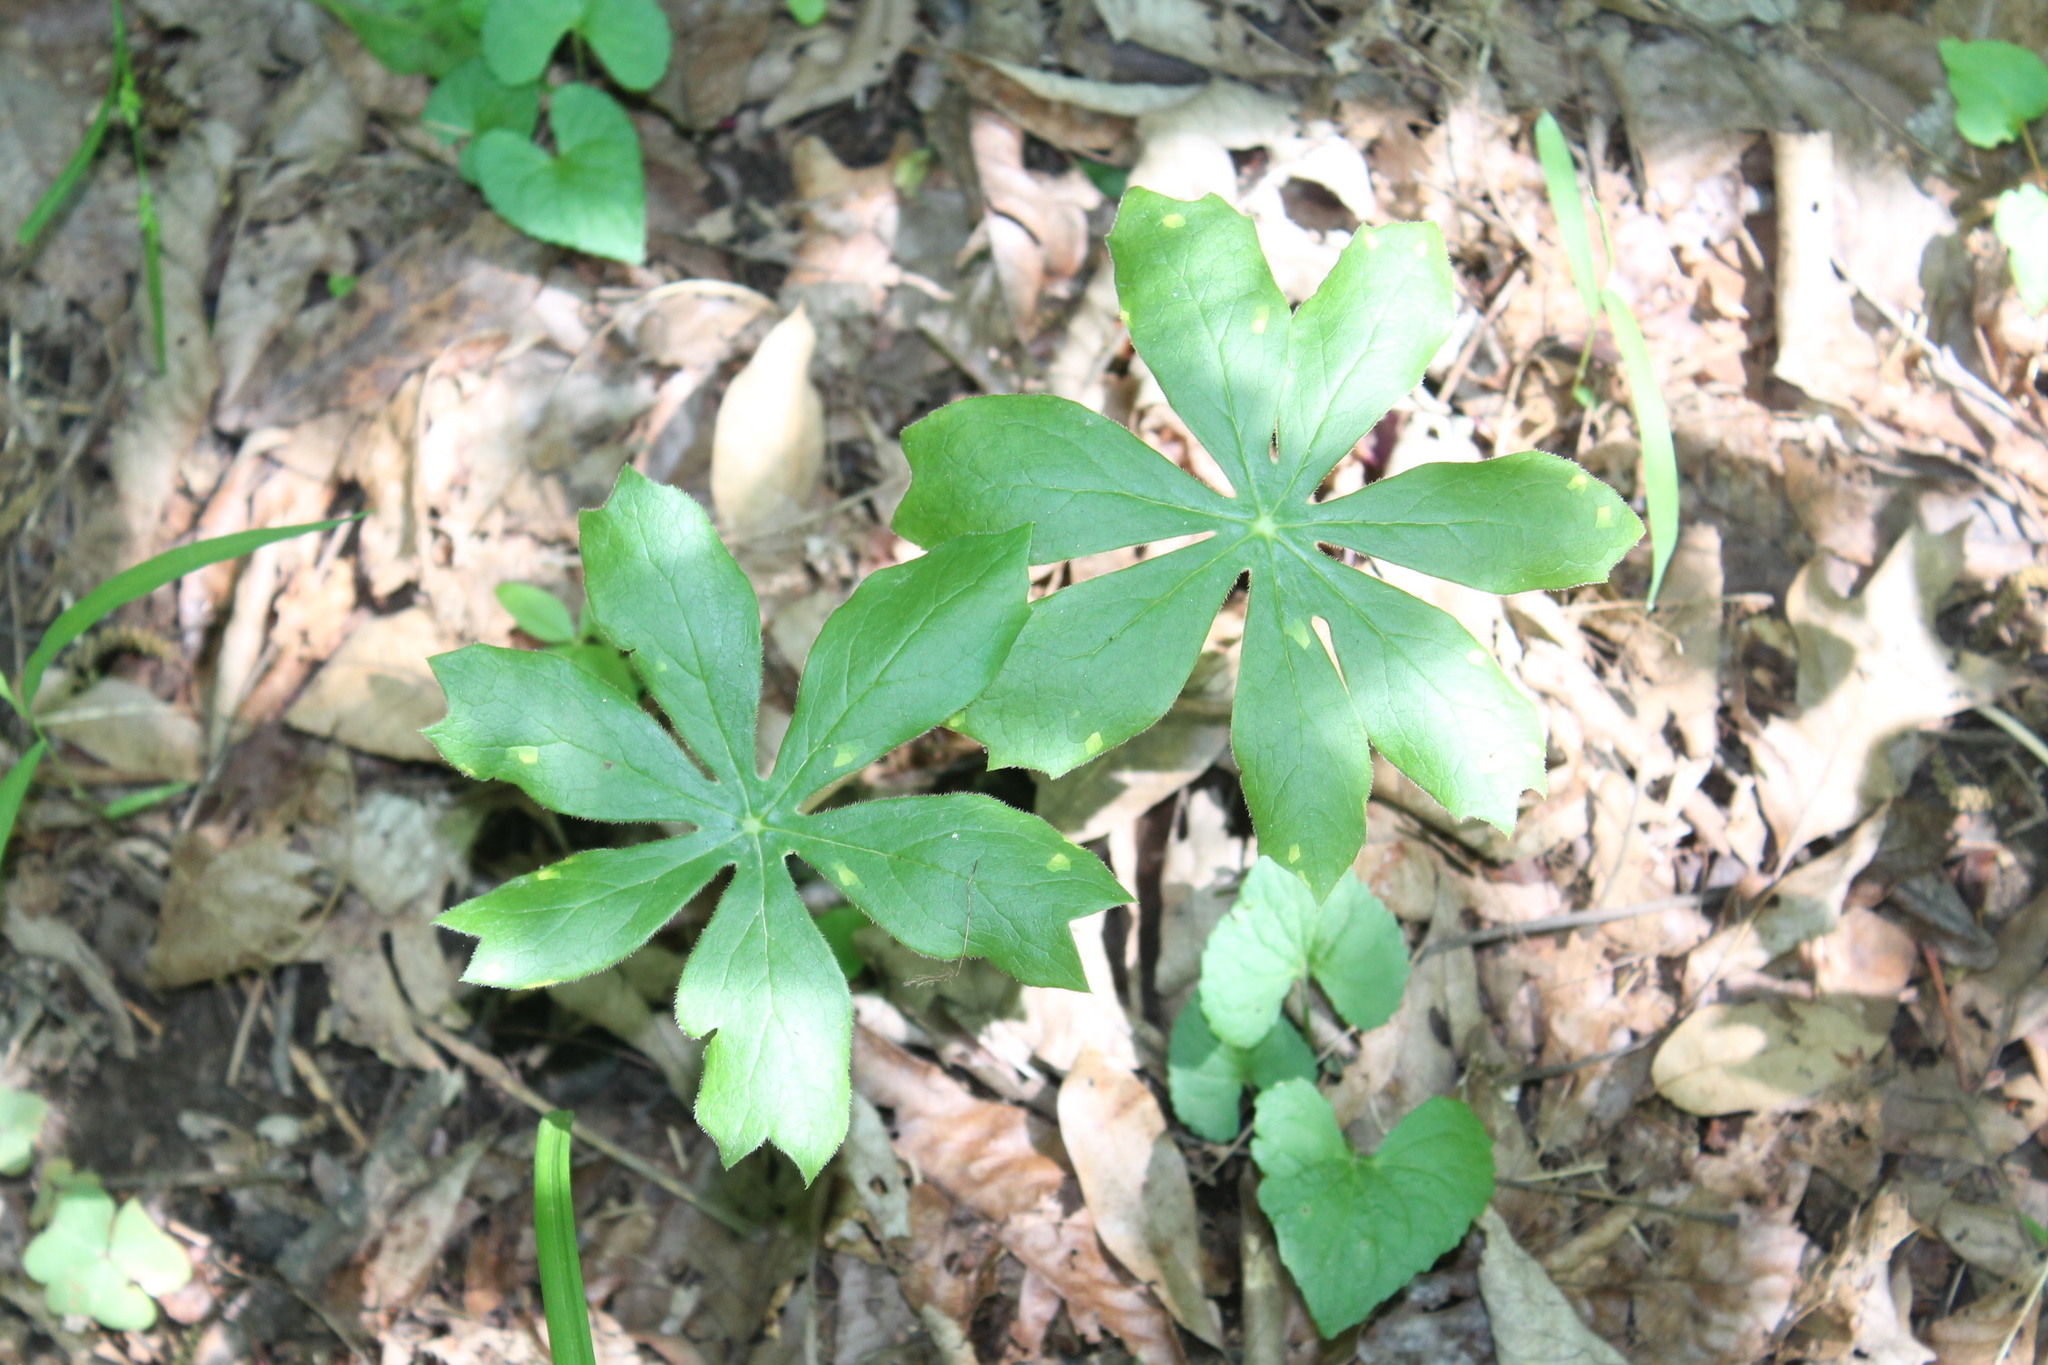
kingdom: Plantae
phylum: Tracheophyta
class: Magnoliopsida
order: Ranunculales
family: Berberidaceae
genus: Podophyllum
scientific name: Podophyllum peltatum
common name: Wild mandrake
